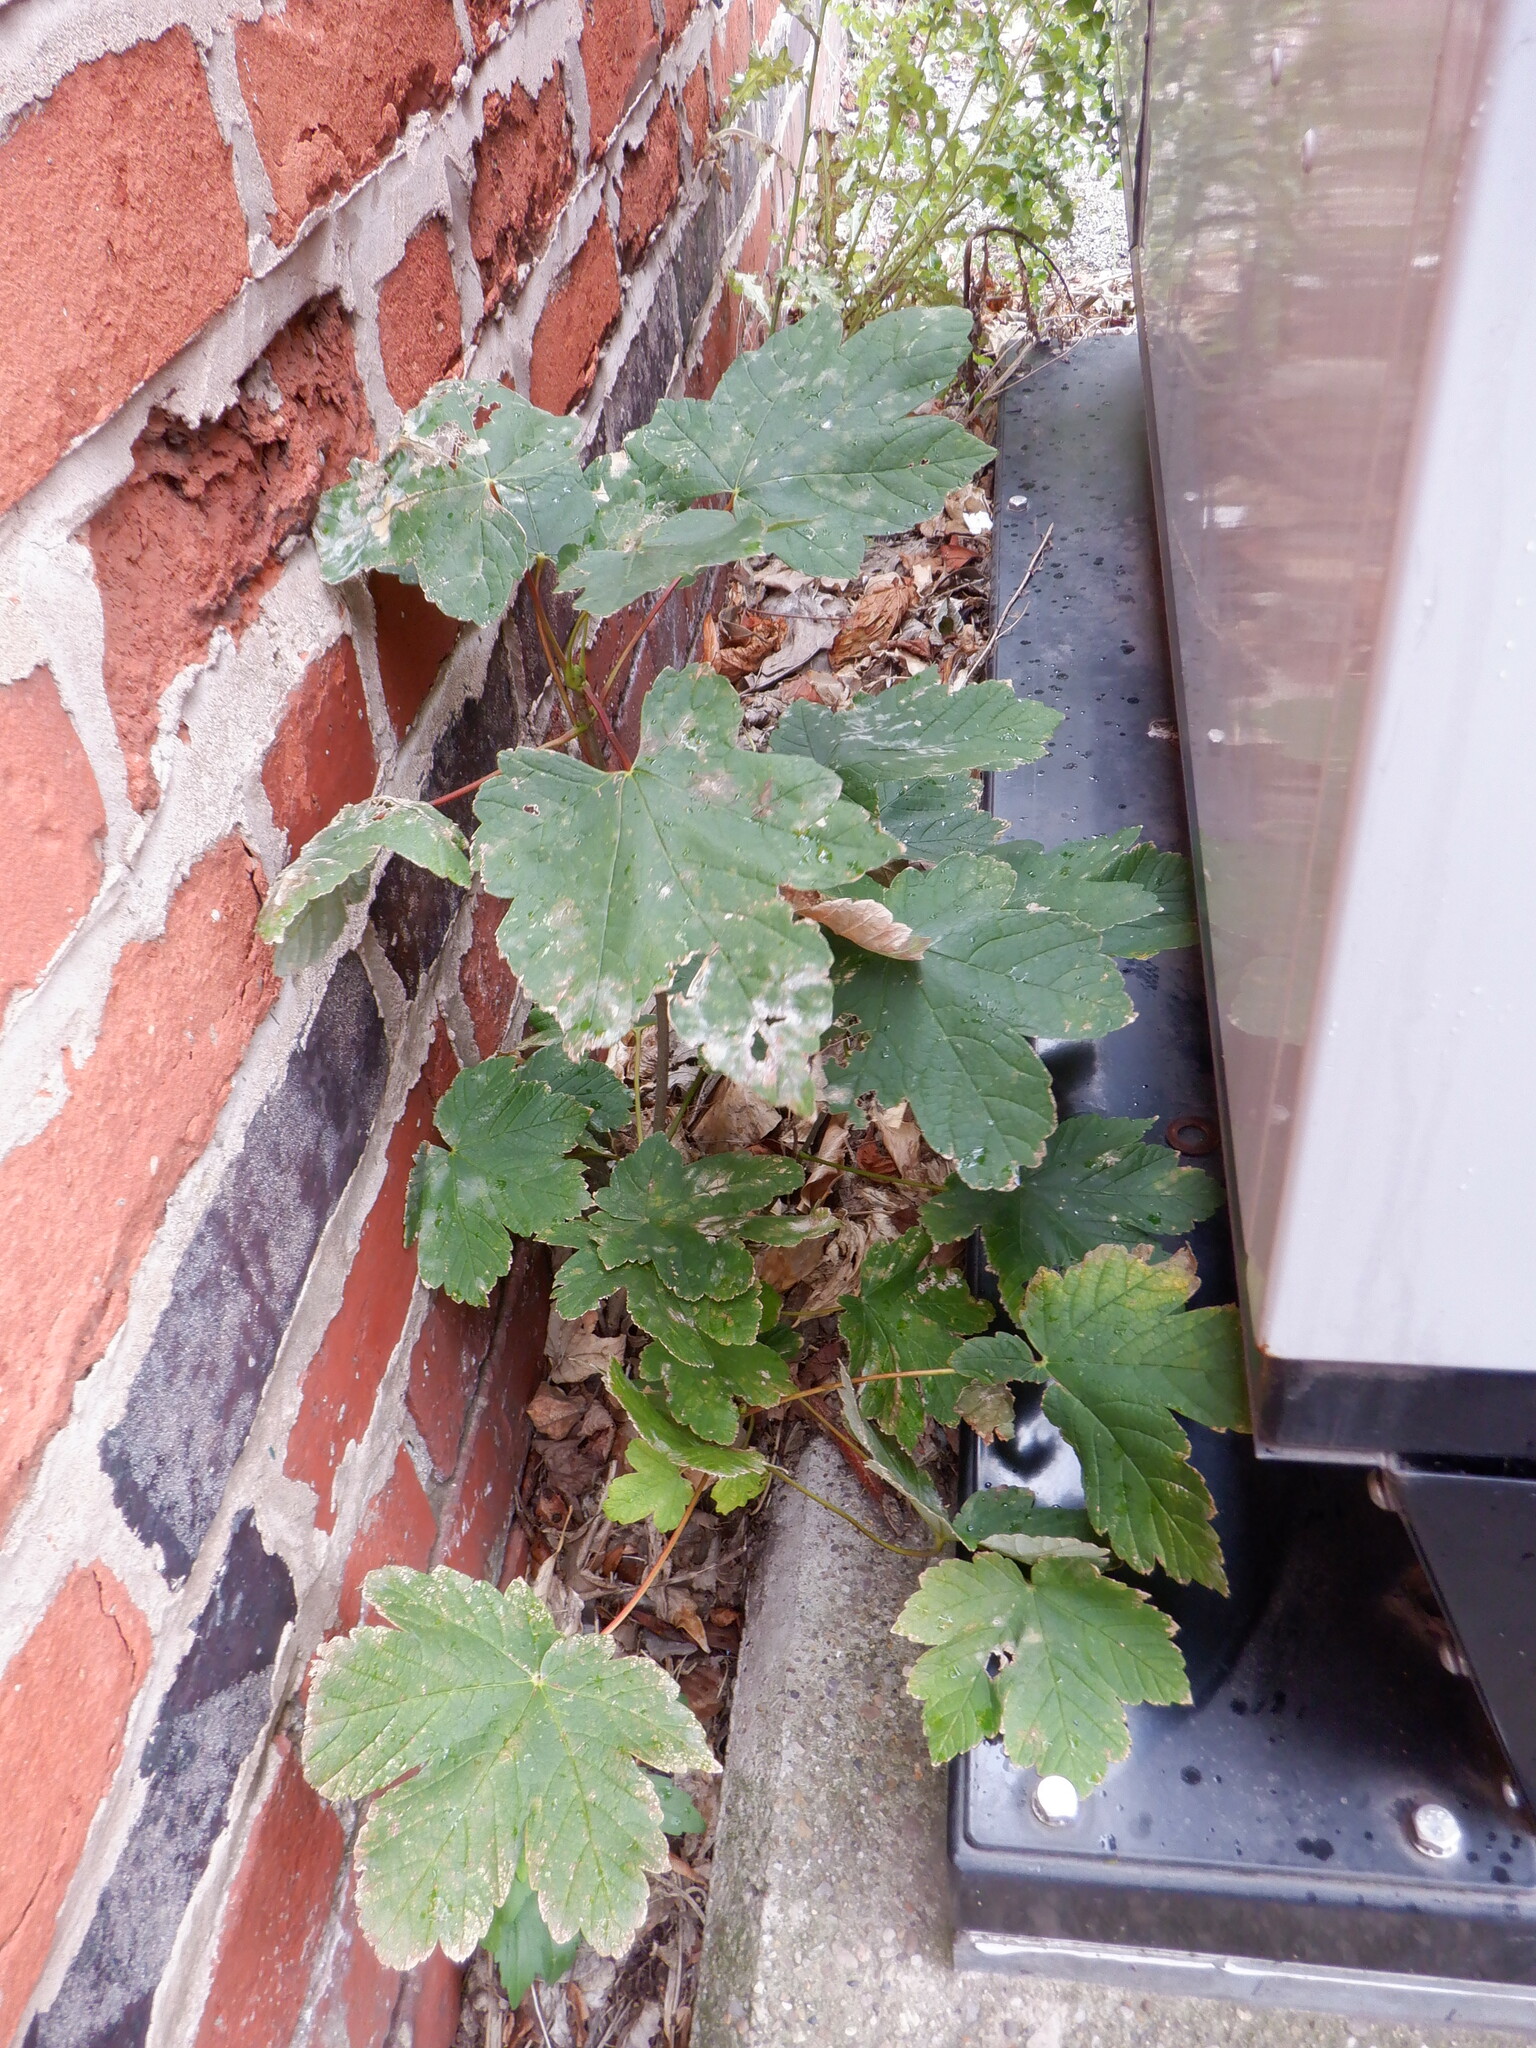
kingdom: Plantae
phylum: Tracheophyta
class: Magnoliopsida
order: Sapindales
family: Sapindaceae
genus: Acer
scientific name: Acer pseudoplatanus
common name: Sycamore
